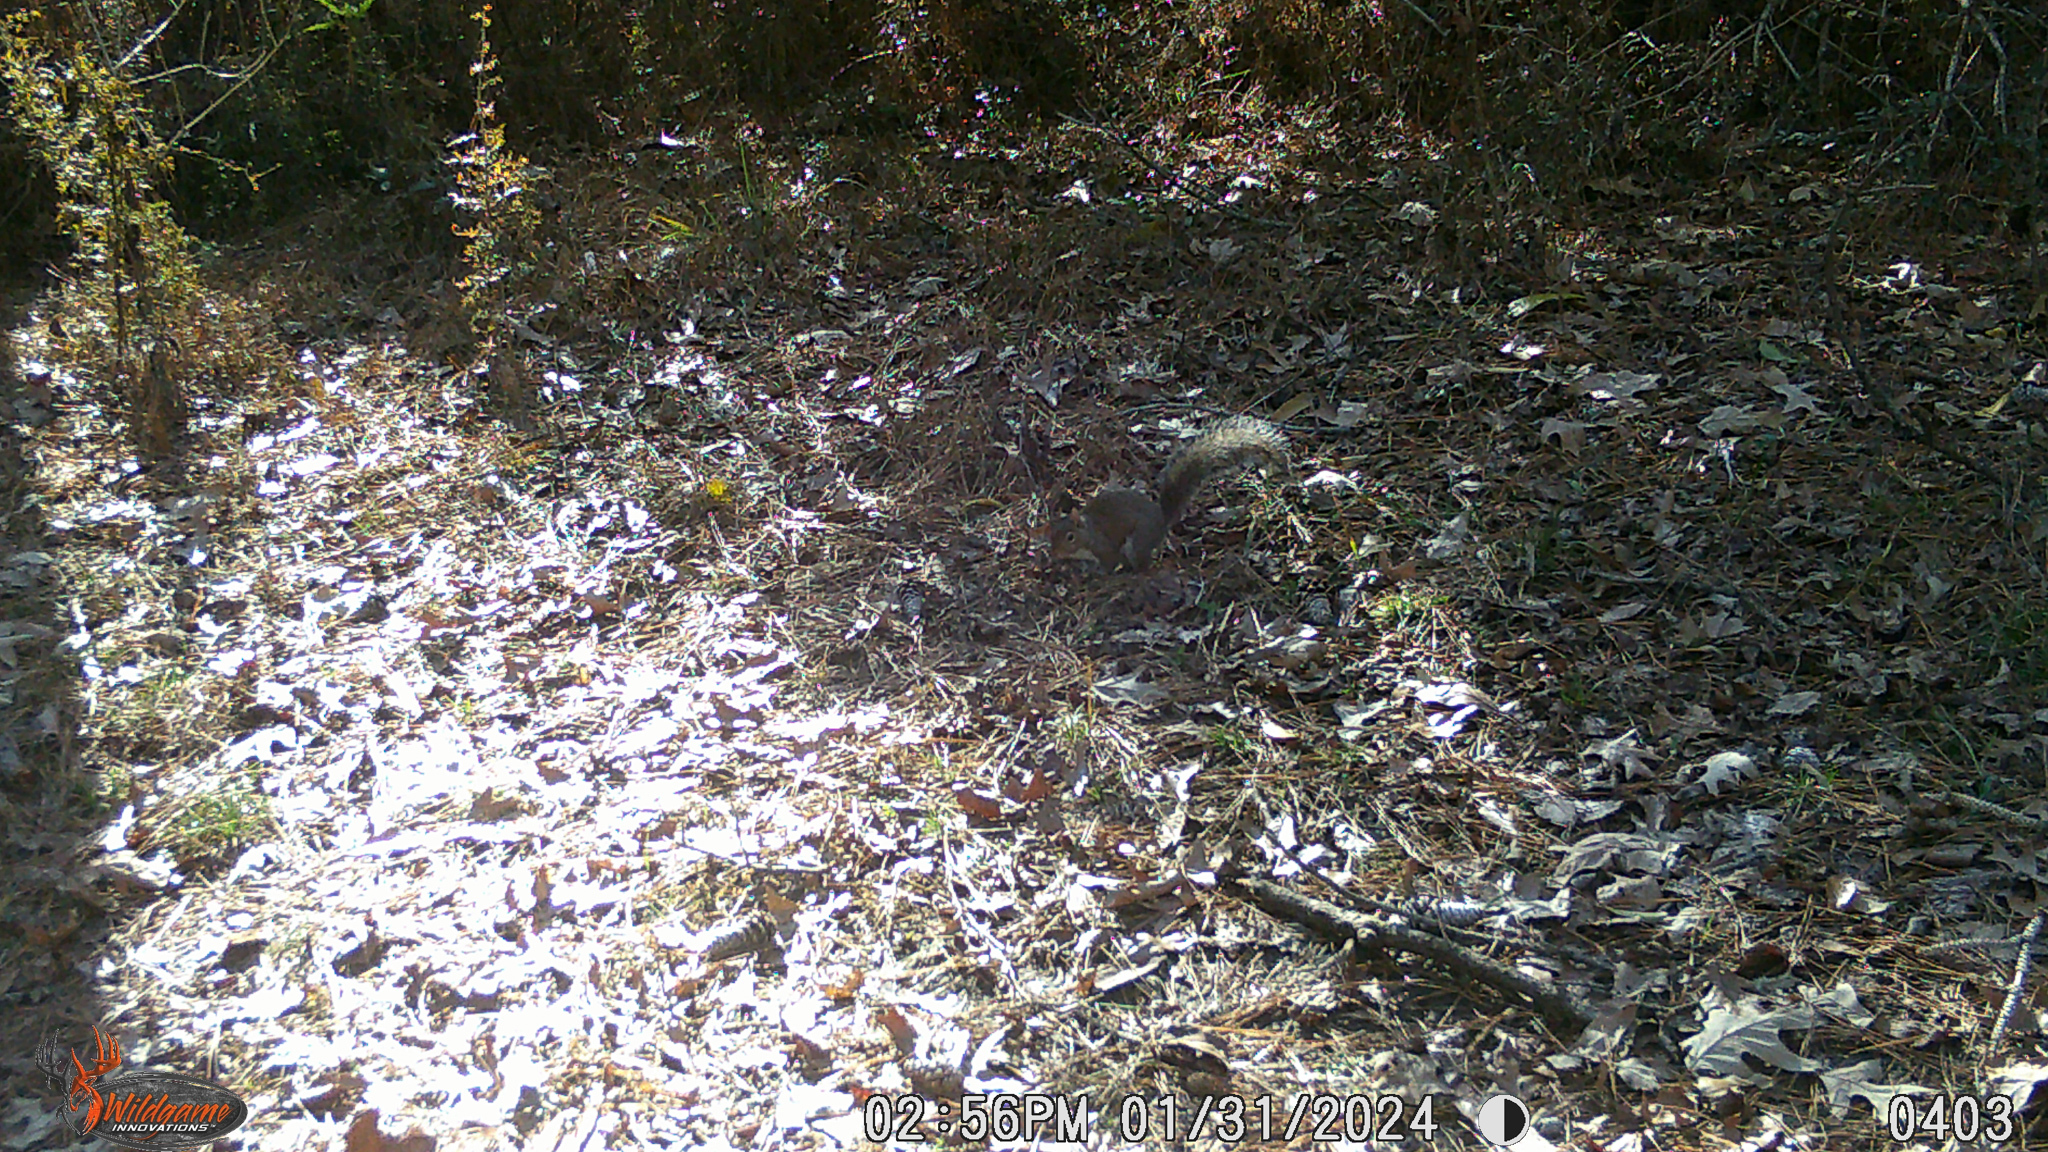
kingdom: Animalia
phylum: Chordata
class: Mammalia
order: Rodentia
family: Sciuridae
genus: Sciurus
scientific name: Sciurus carolinensis
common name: Eastern gray squirrel
